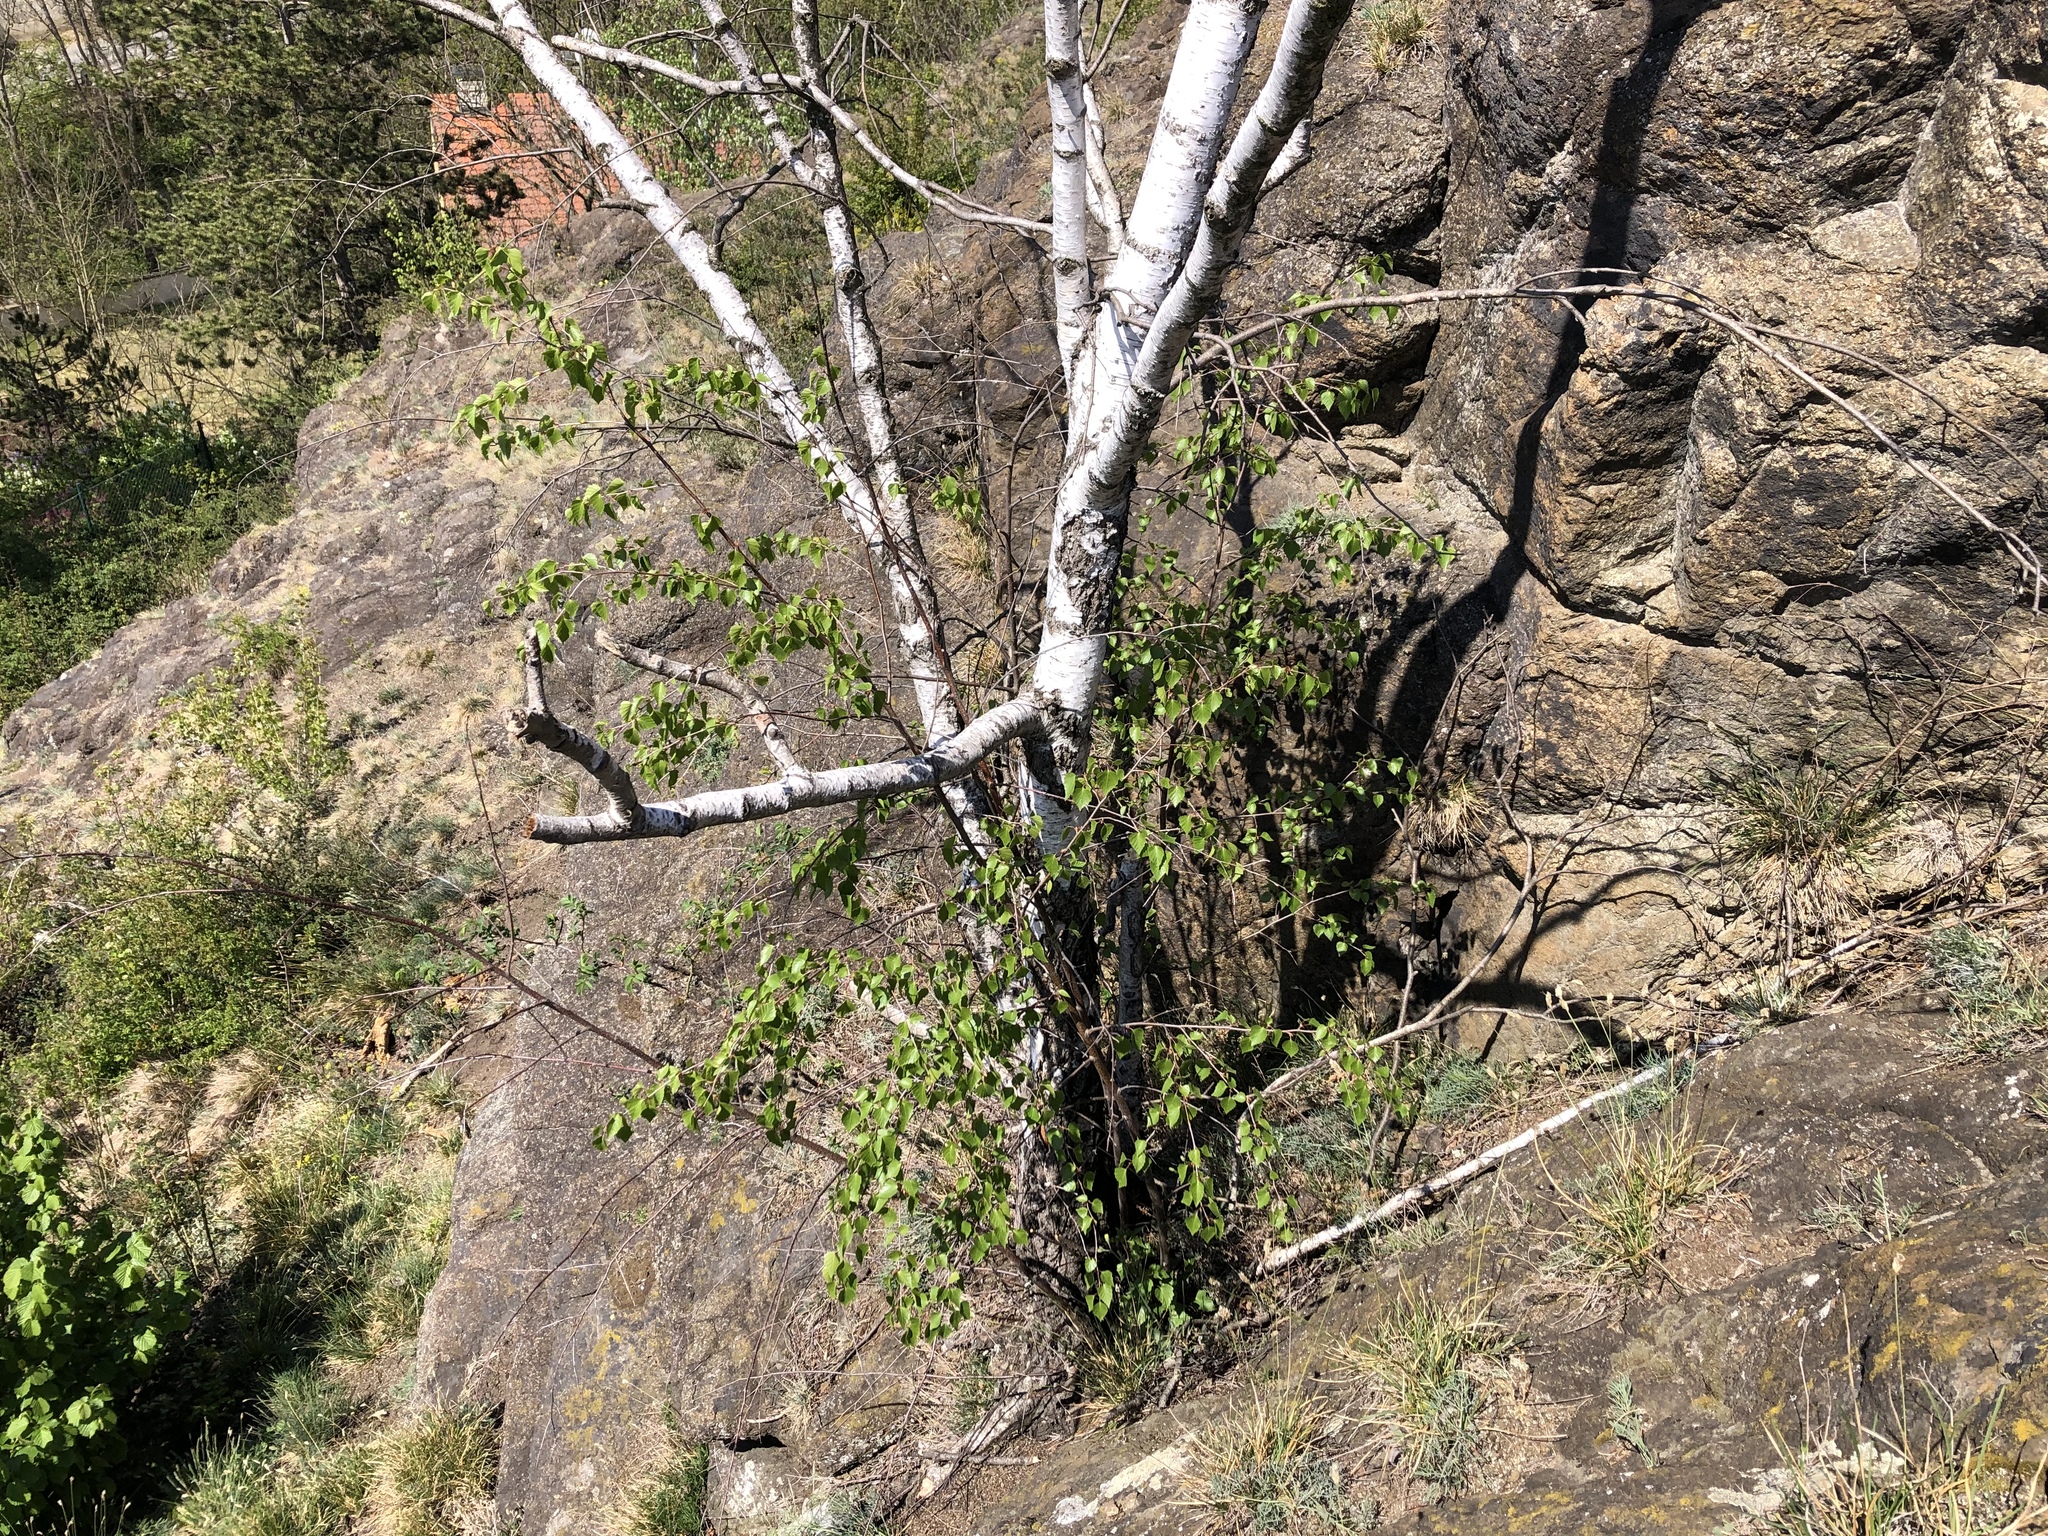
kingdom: Plantae
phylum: Tracheophyta
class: Magnoliopsida
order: Fagales
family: Betulaceae
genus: Betula
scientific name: Betula pendula
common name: Silver birch
